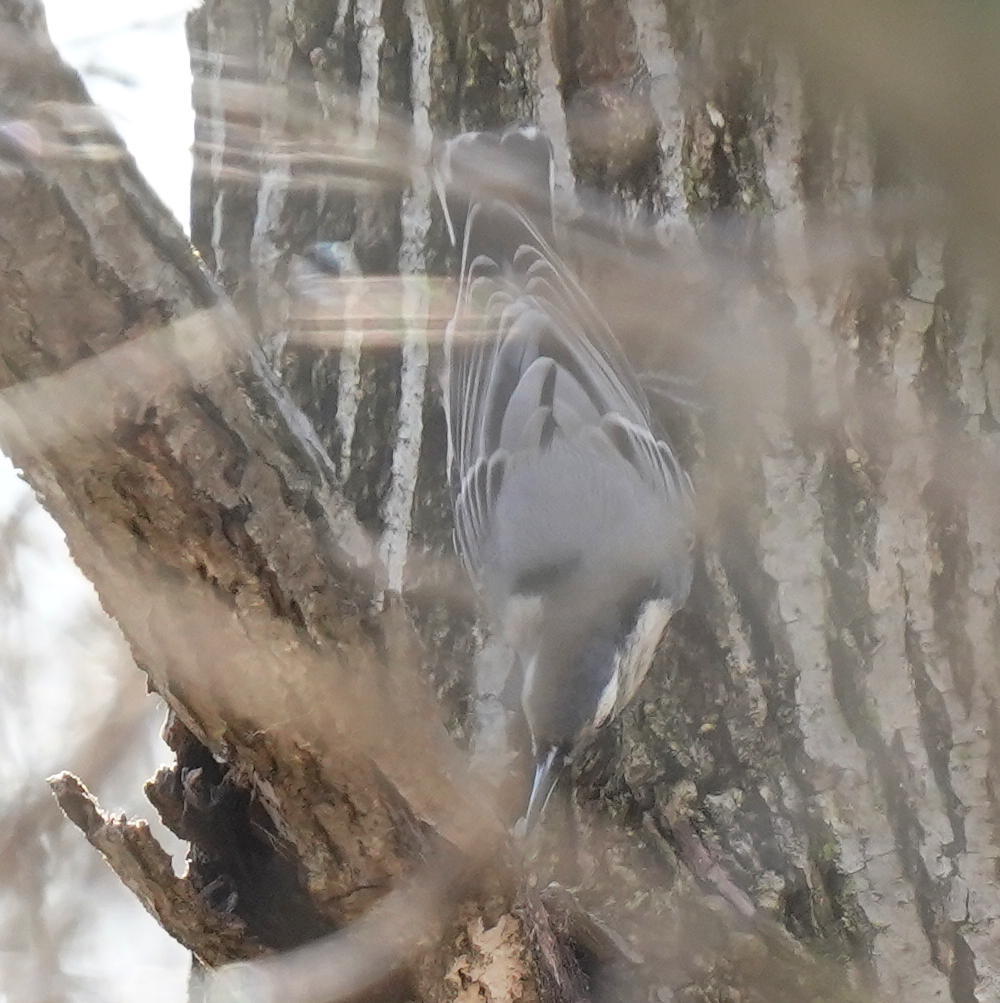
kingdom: Animalia
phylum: Chordata
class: Aves
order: Passeriformes
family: Sittidae
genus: Sitta
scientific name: Sitta carolinensis
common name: White-breasted nuthatch
